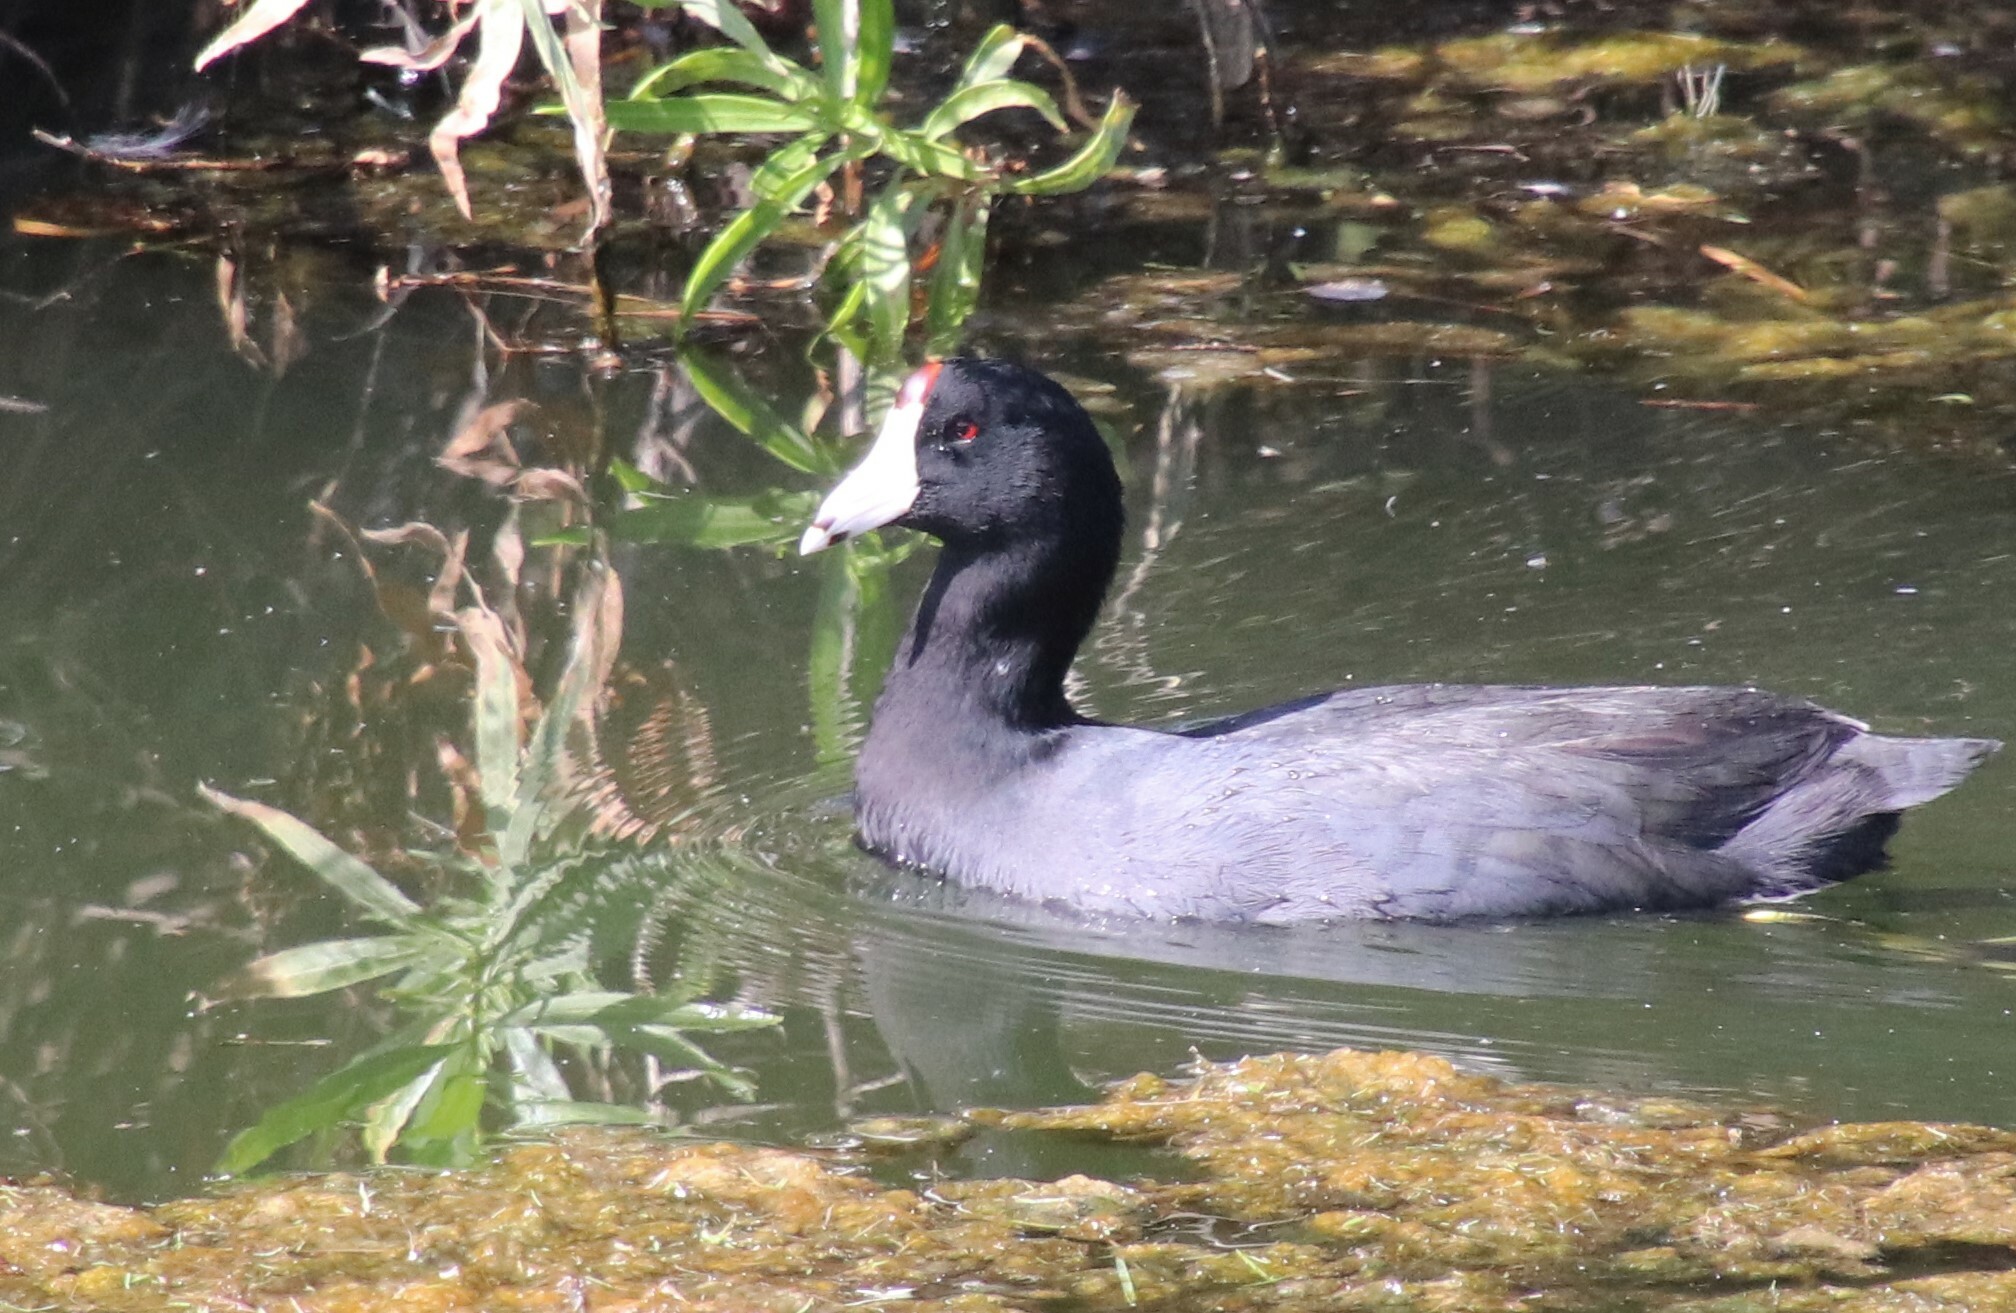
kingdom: Animalia
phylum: Chordata
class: Aves
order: Gruiformes
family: Rallidae
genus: Fulica
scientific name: Fulica americana
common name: American coot
